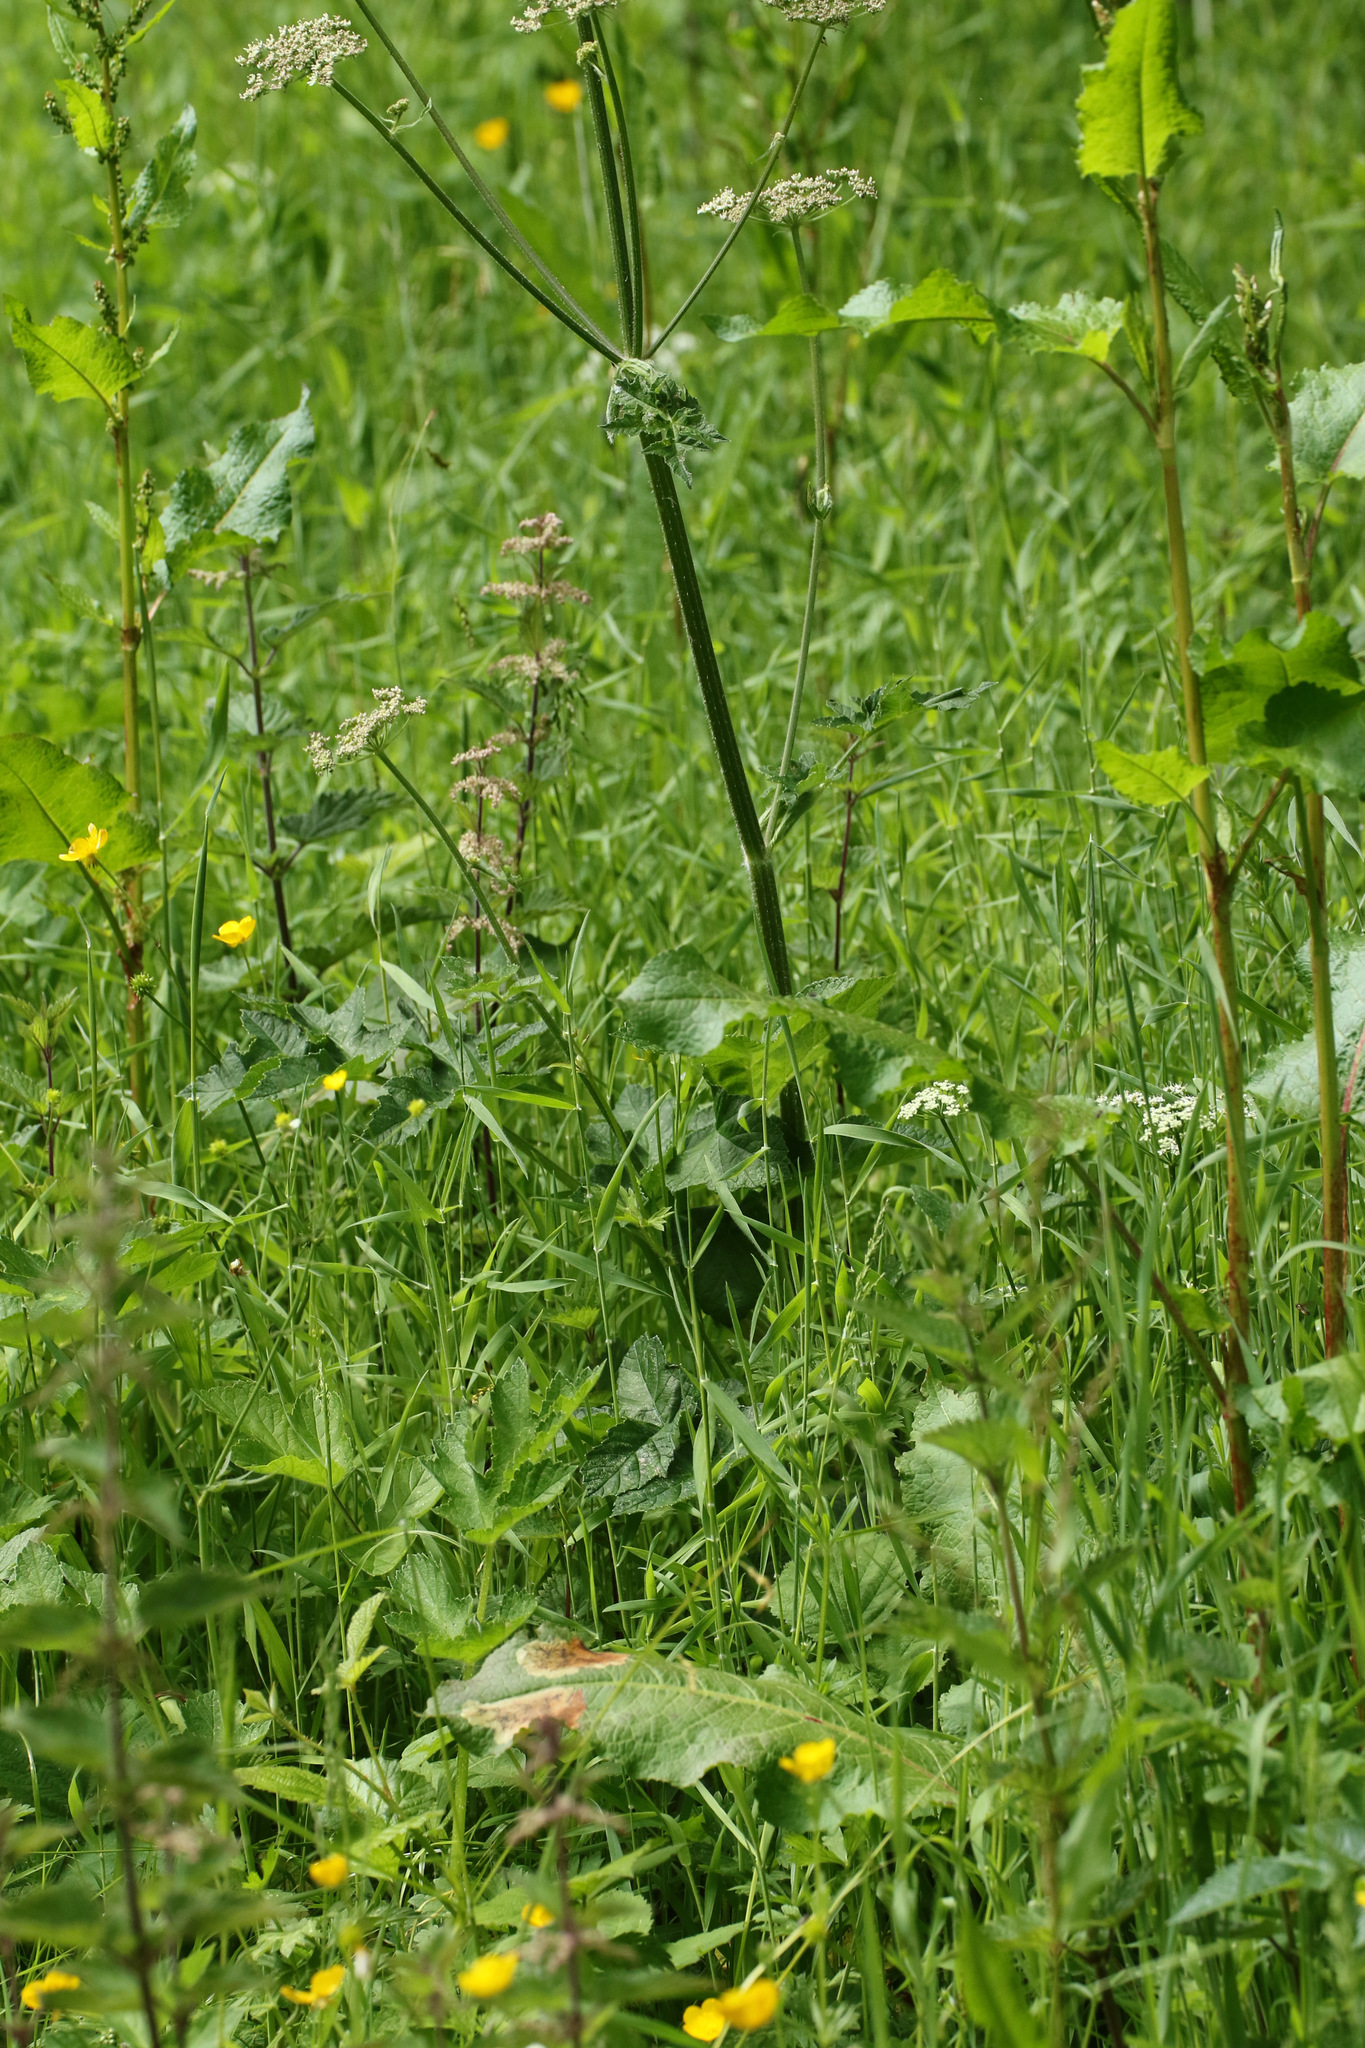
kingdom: Plantae
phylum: Tracheophyta
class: Magnoliopsida
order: Apiales
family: Apiaceae
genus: Heracleum
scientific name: Heracleum sphondylium
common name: Hogweed
